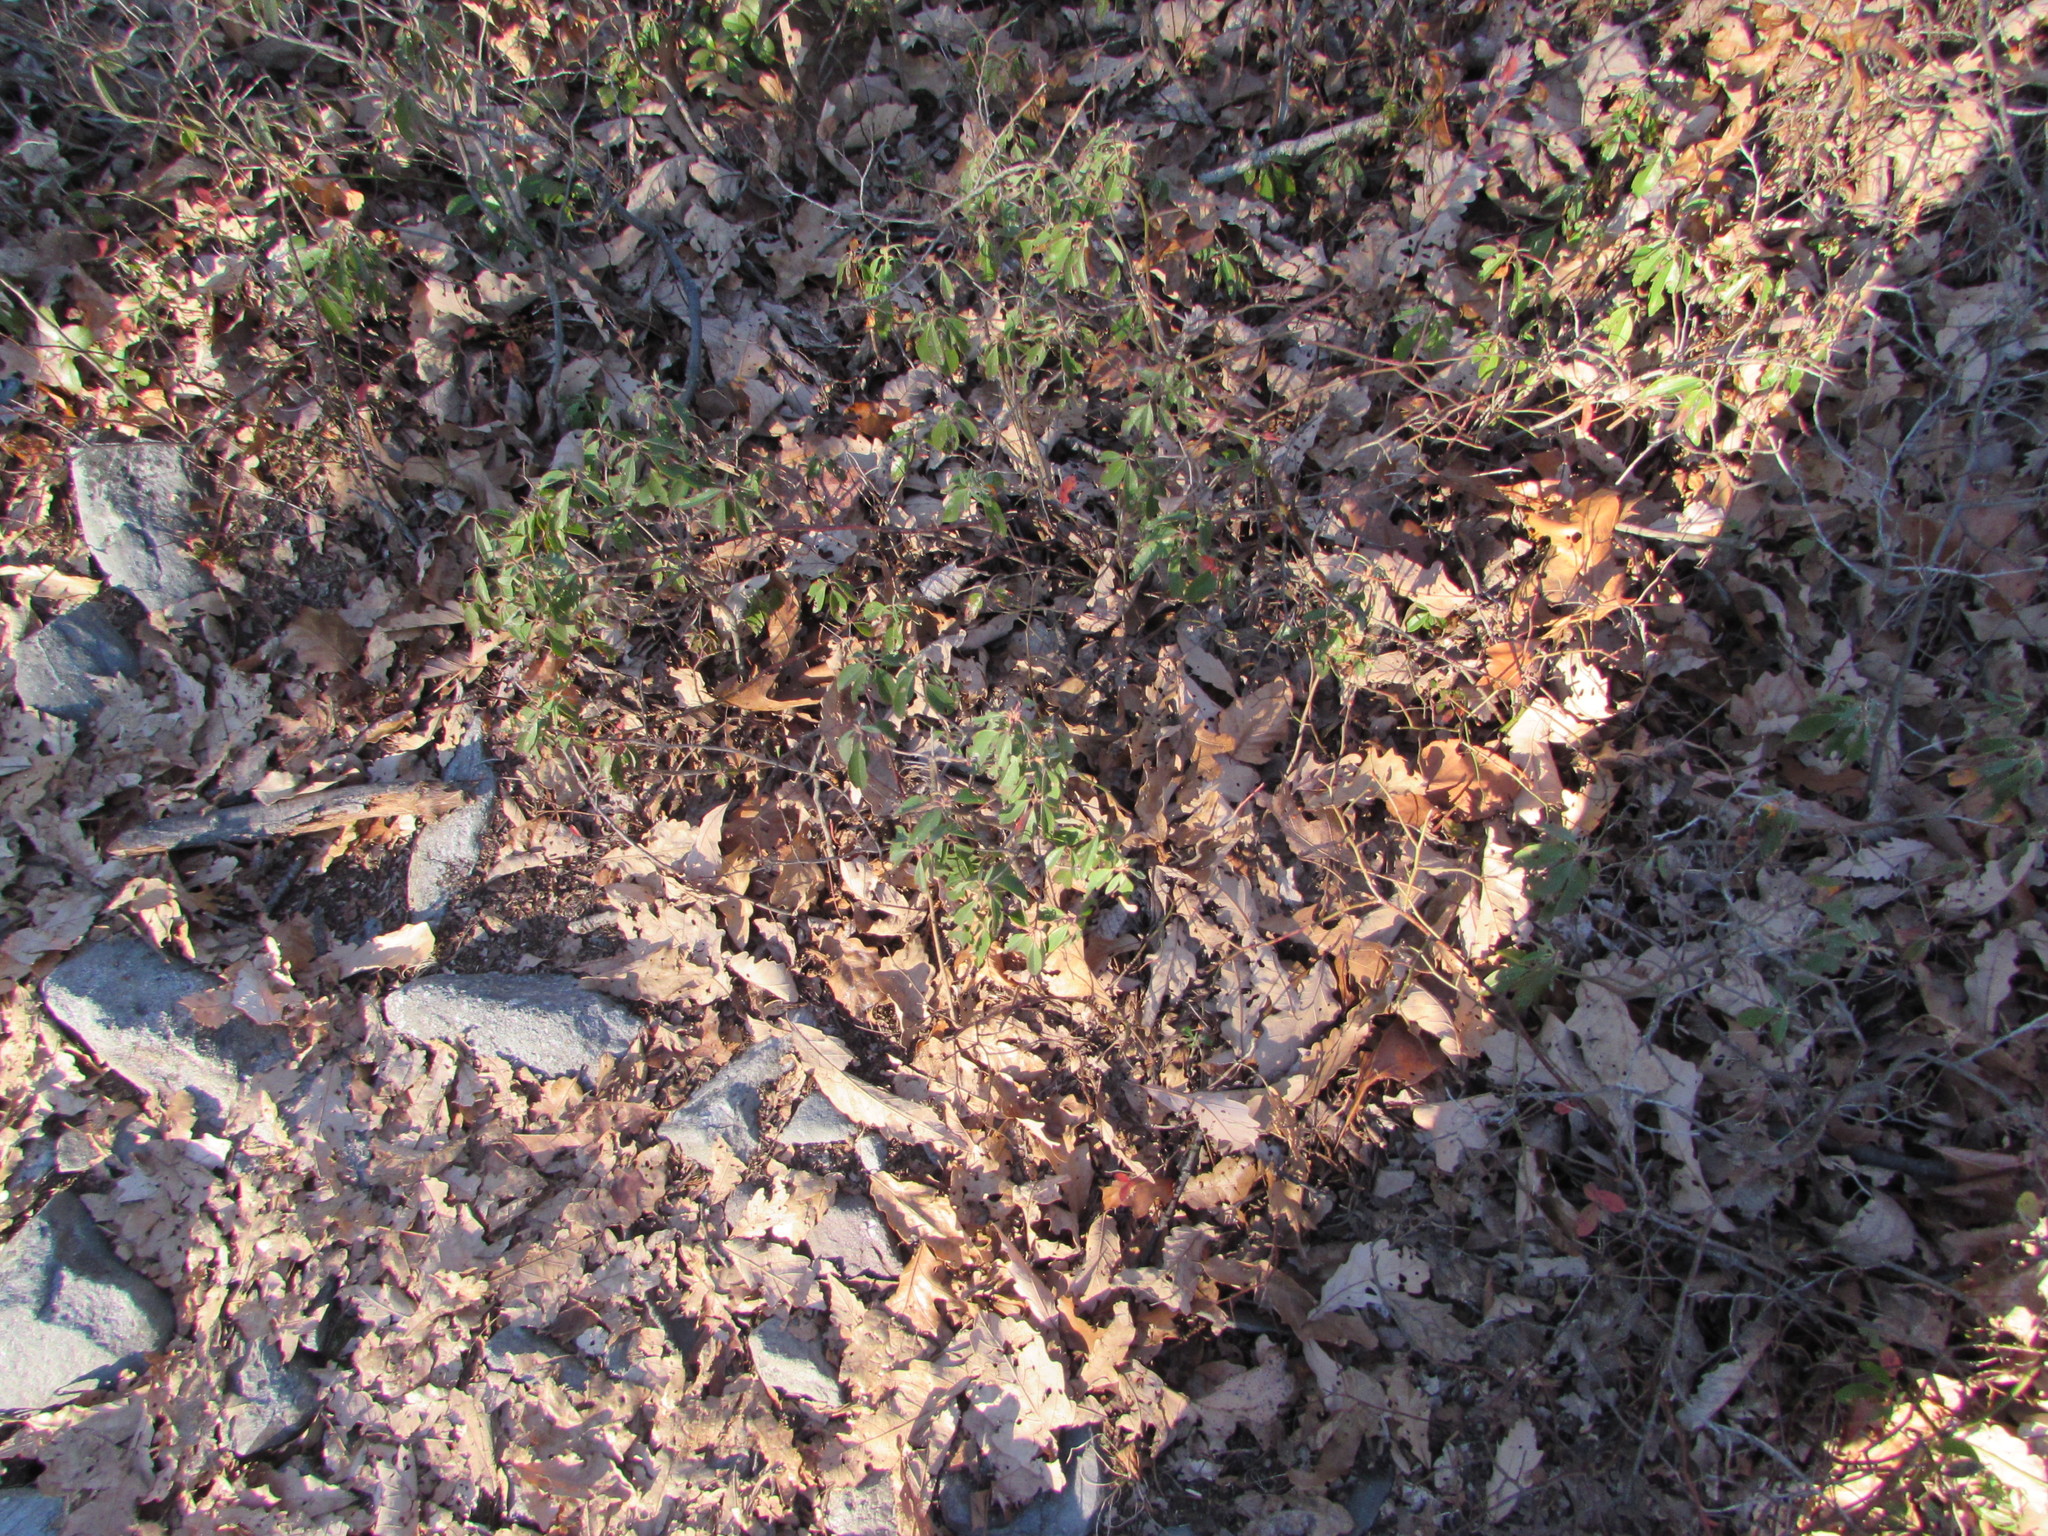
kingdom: Plantae
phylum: Tracheophyta
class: Magnoliopsida
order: Ericales
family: Ericaceae
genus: Kalmia
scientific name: Kalmia angustifolia
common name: Sheep-laurel
